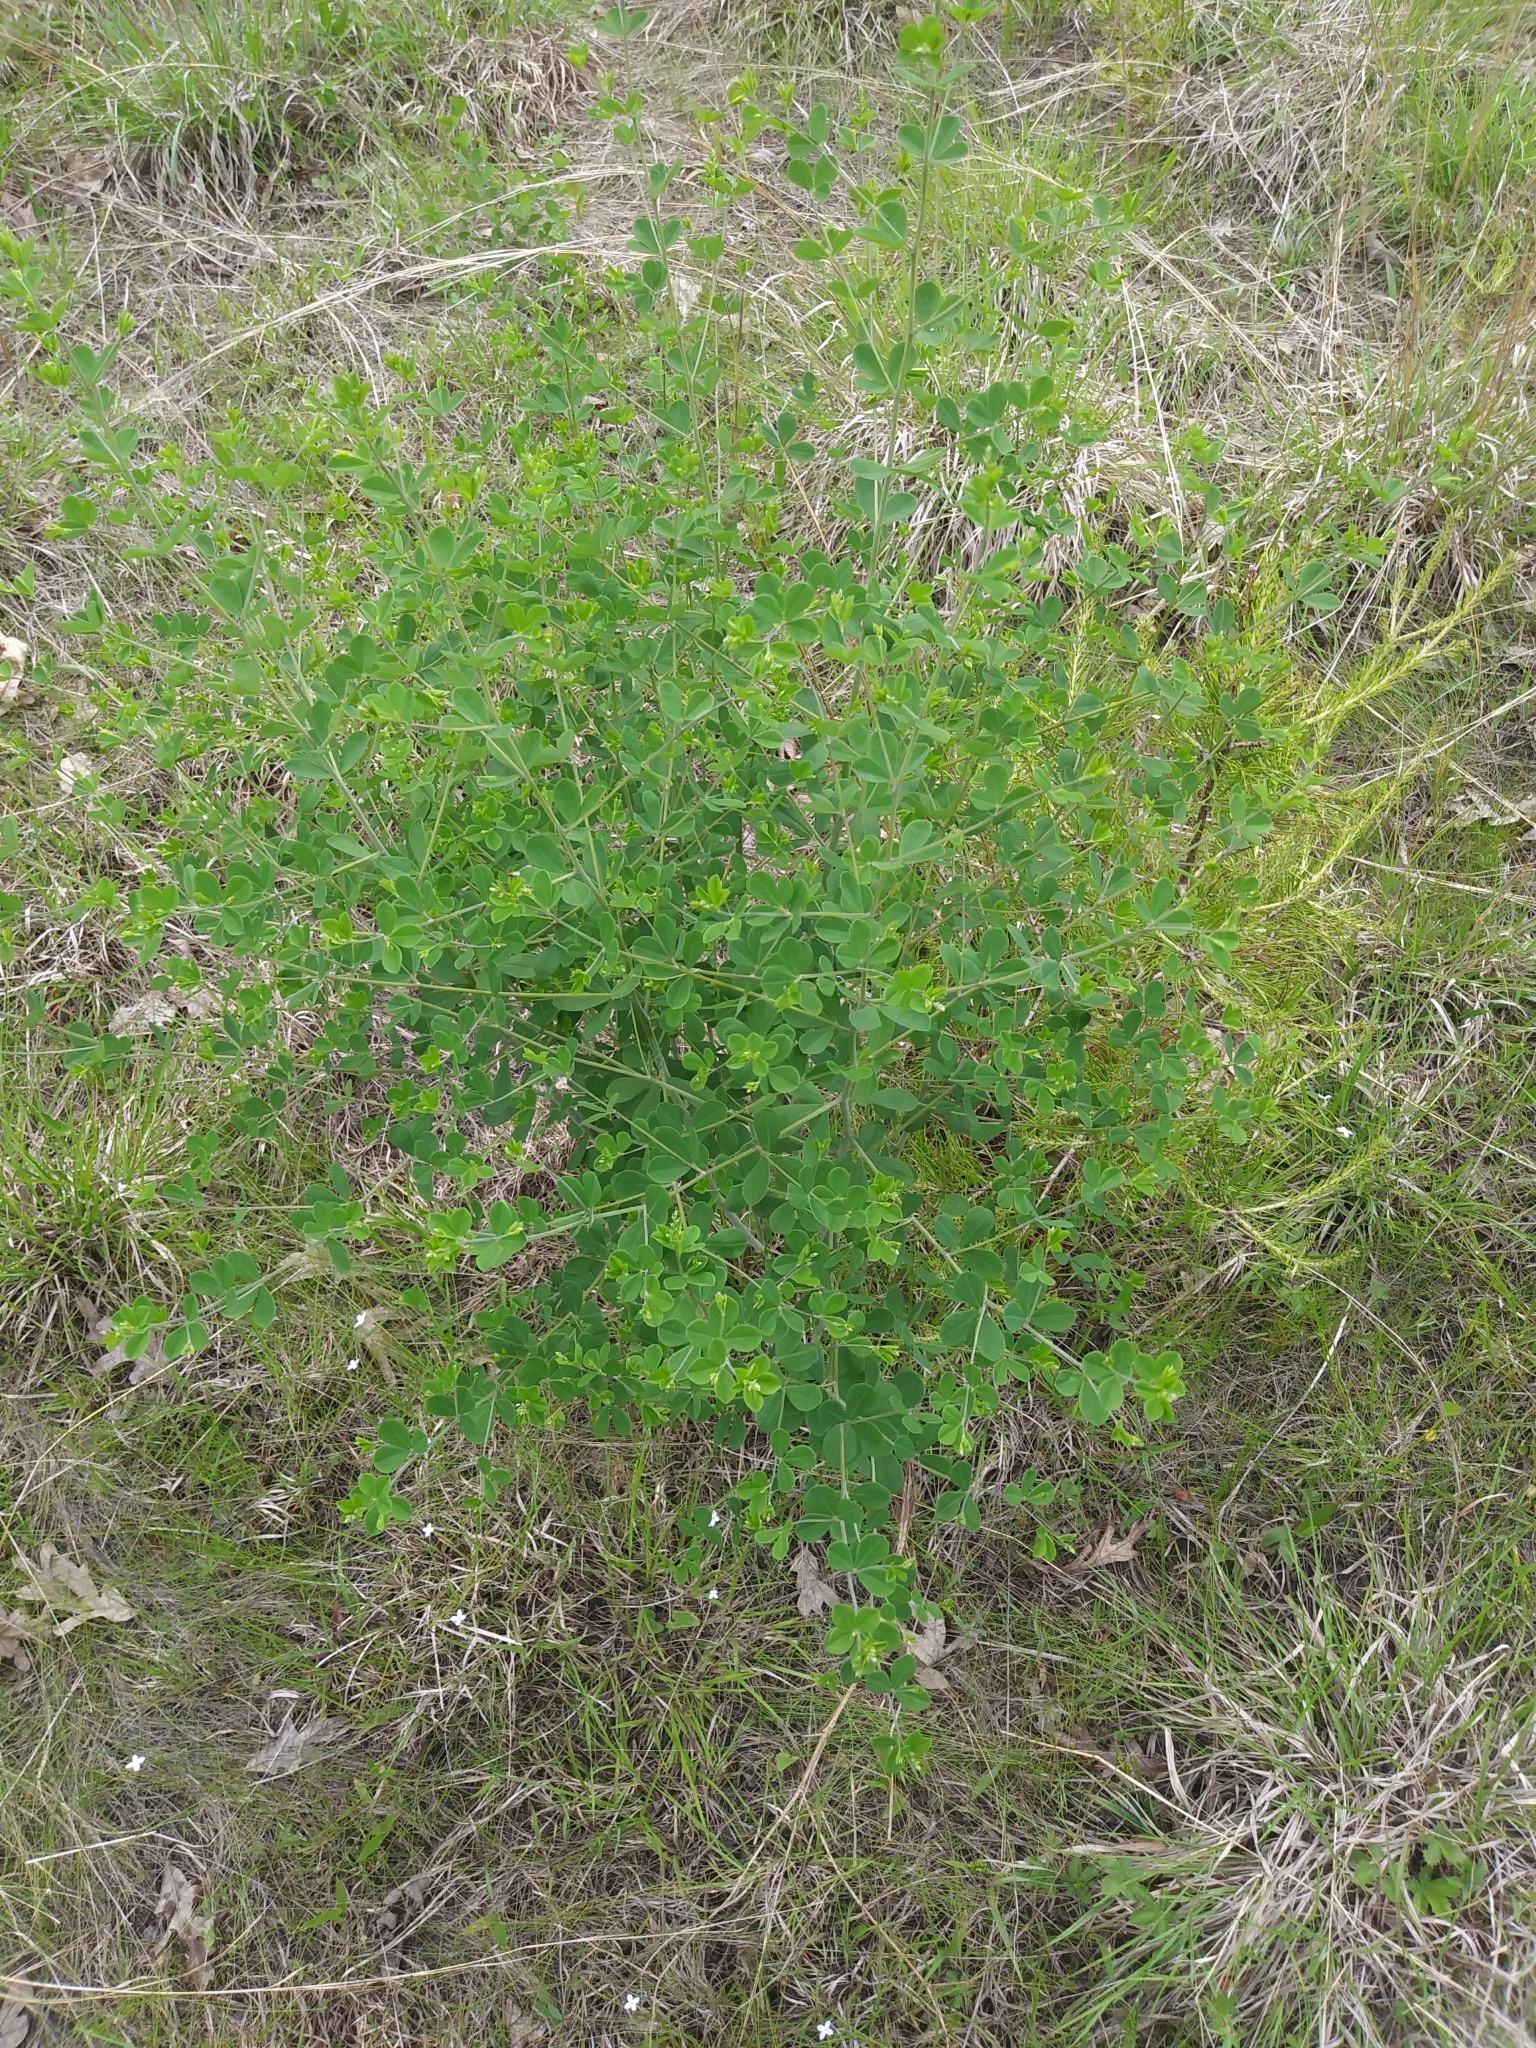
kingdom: Plantae
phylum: Tracheophyta
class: Magnoliopsida
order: Fabales
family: Fabaceae
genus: Baptisia
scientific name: Baptisia tinctoria
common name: Wild indigo
